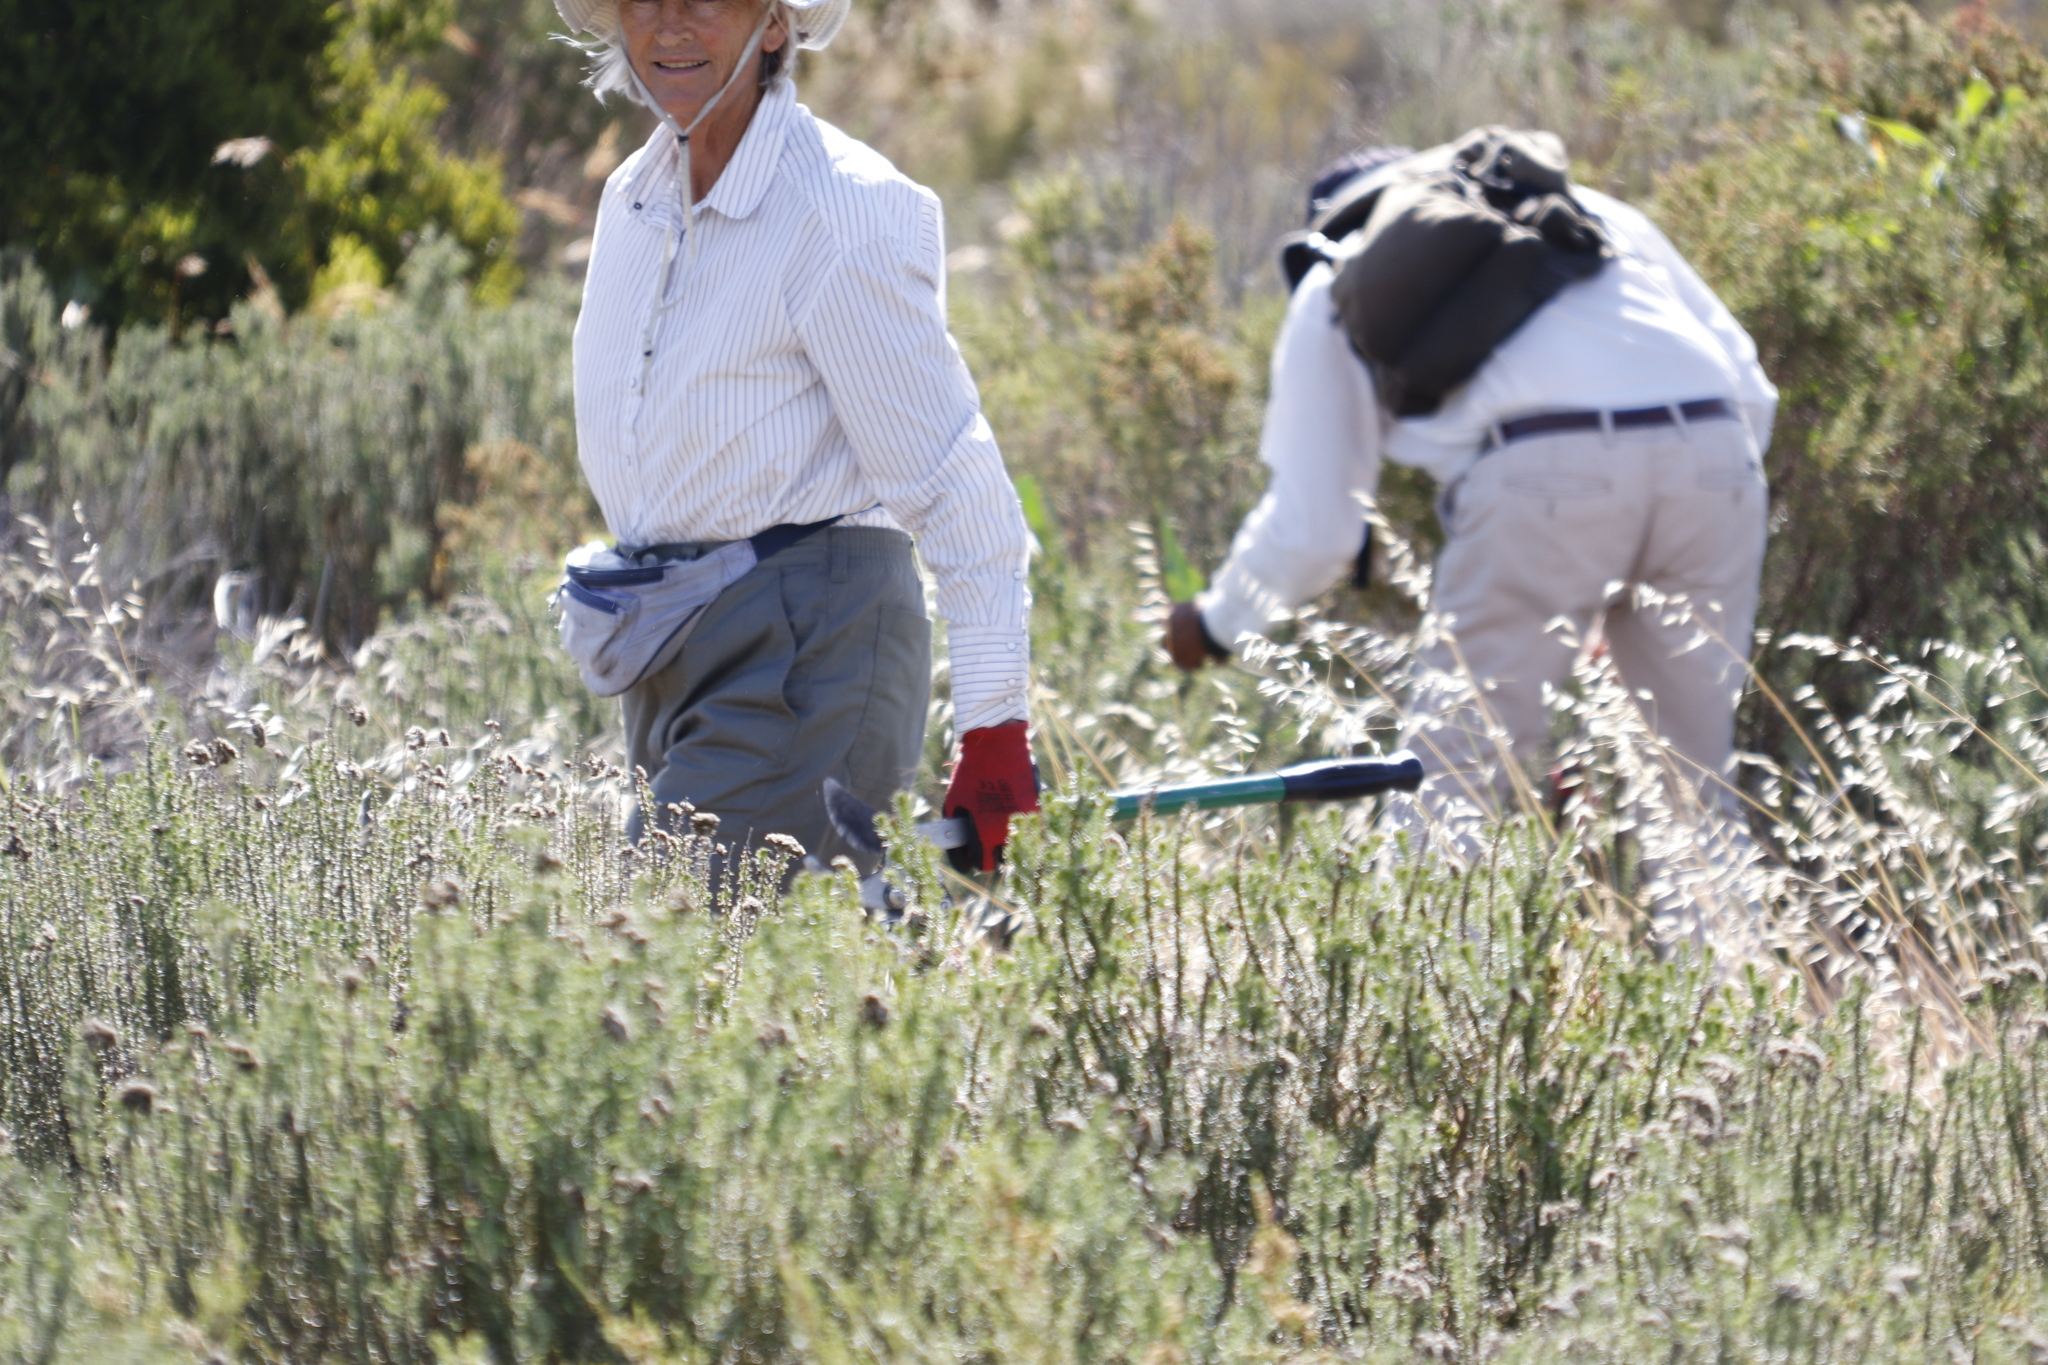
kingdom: Plantae
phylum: Tracheophyta
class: Magnoliopsida
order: Asterales
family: Asteraceae
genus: Metalasia
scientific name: Metalasia densa
